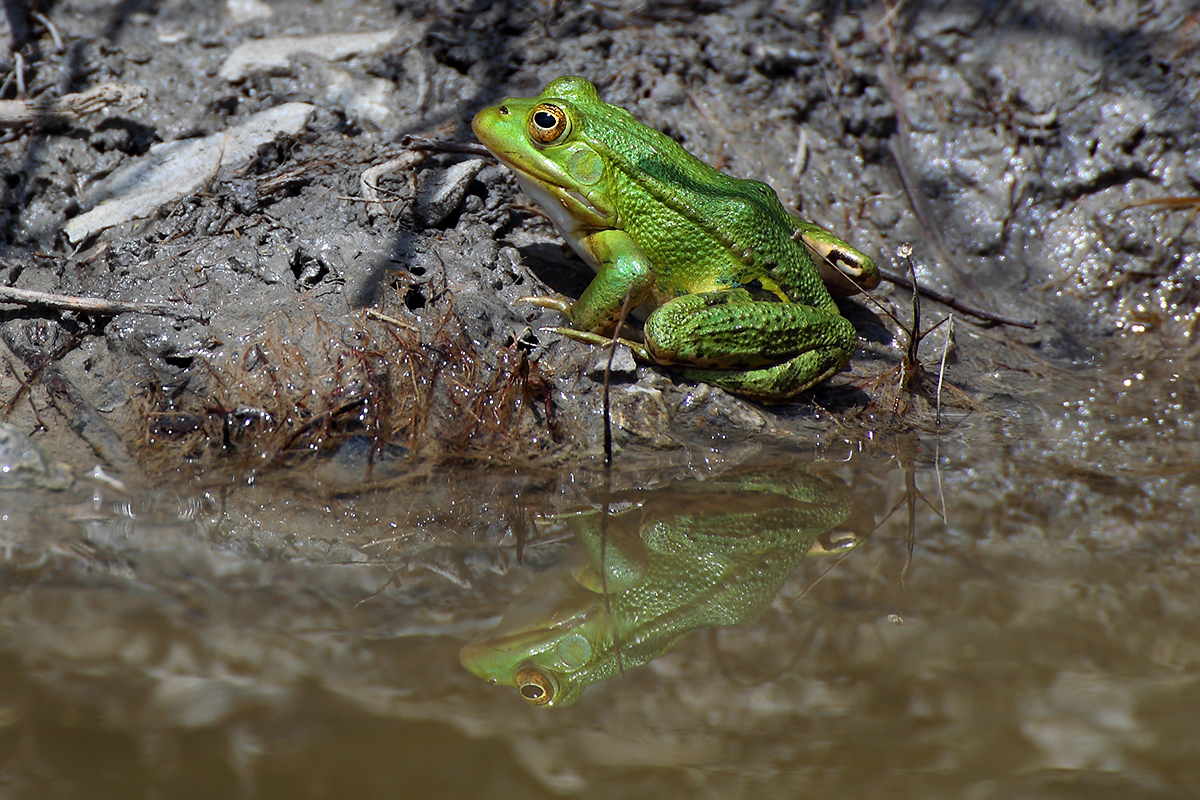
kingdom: Animalia
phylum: Chordata
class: Amphibia
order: Anura
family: Ranidae
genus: Pelophylax
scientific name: Pelophylax
